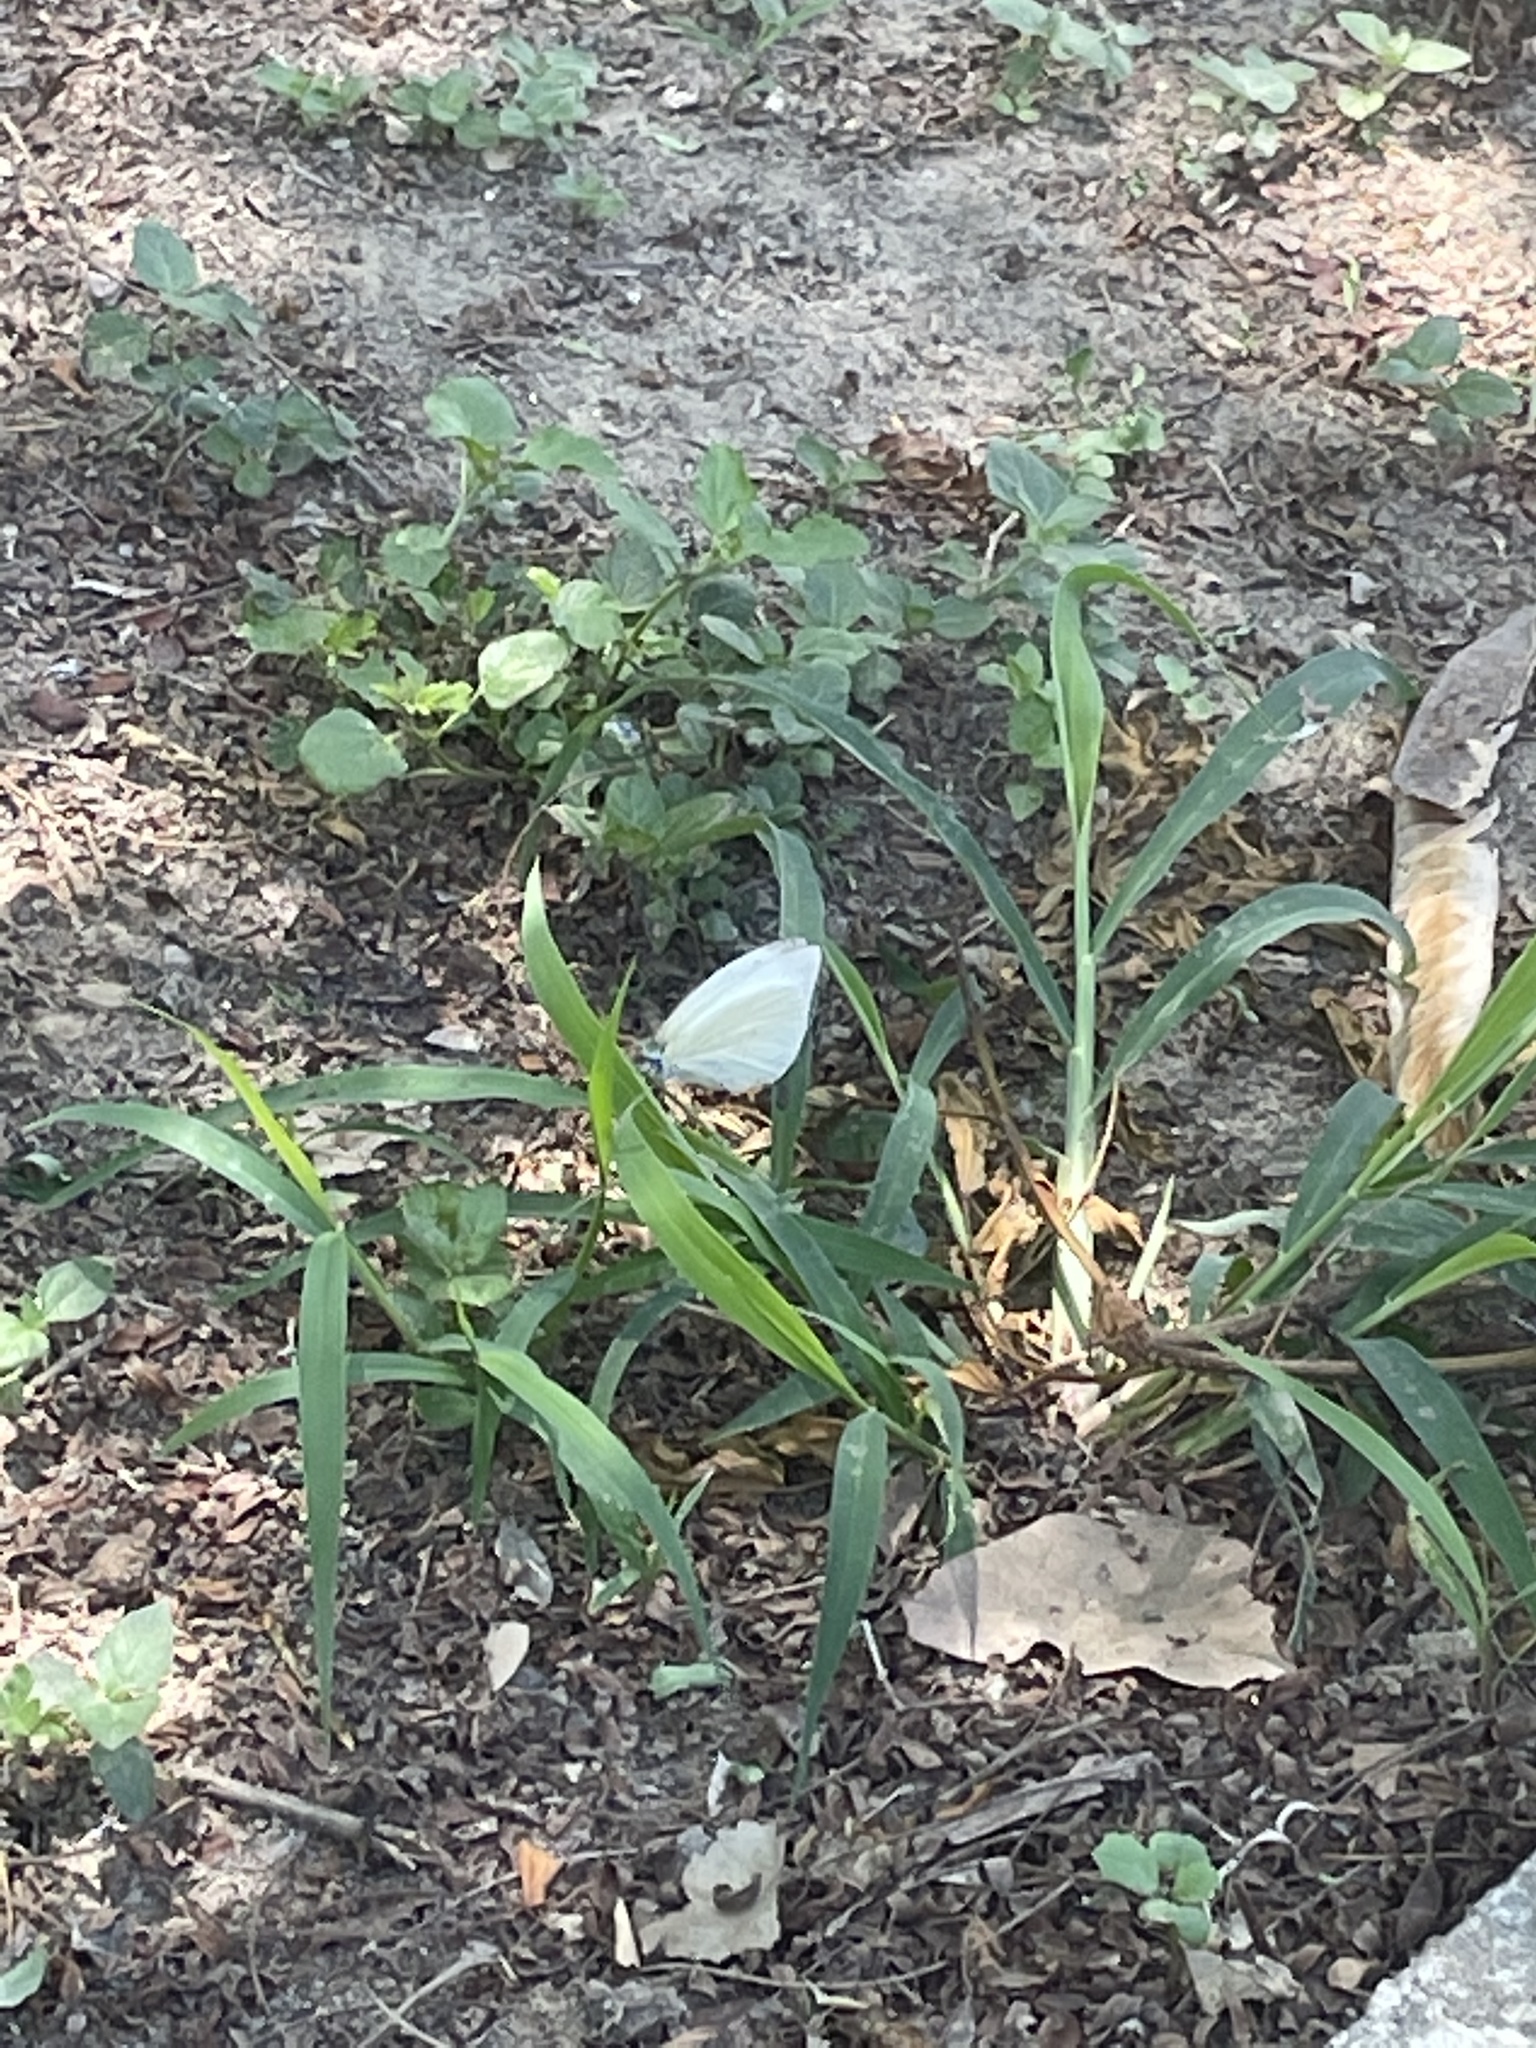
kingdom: Animalia
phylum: Arthropoda
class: Insecta
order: Lepidoptera
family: Pieridae
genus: Leptophobia
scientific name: Leptophobia aripa
